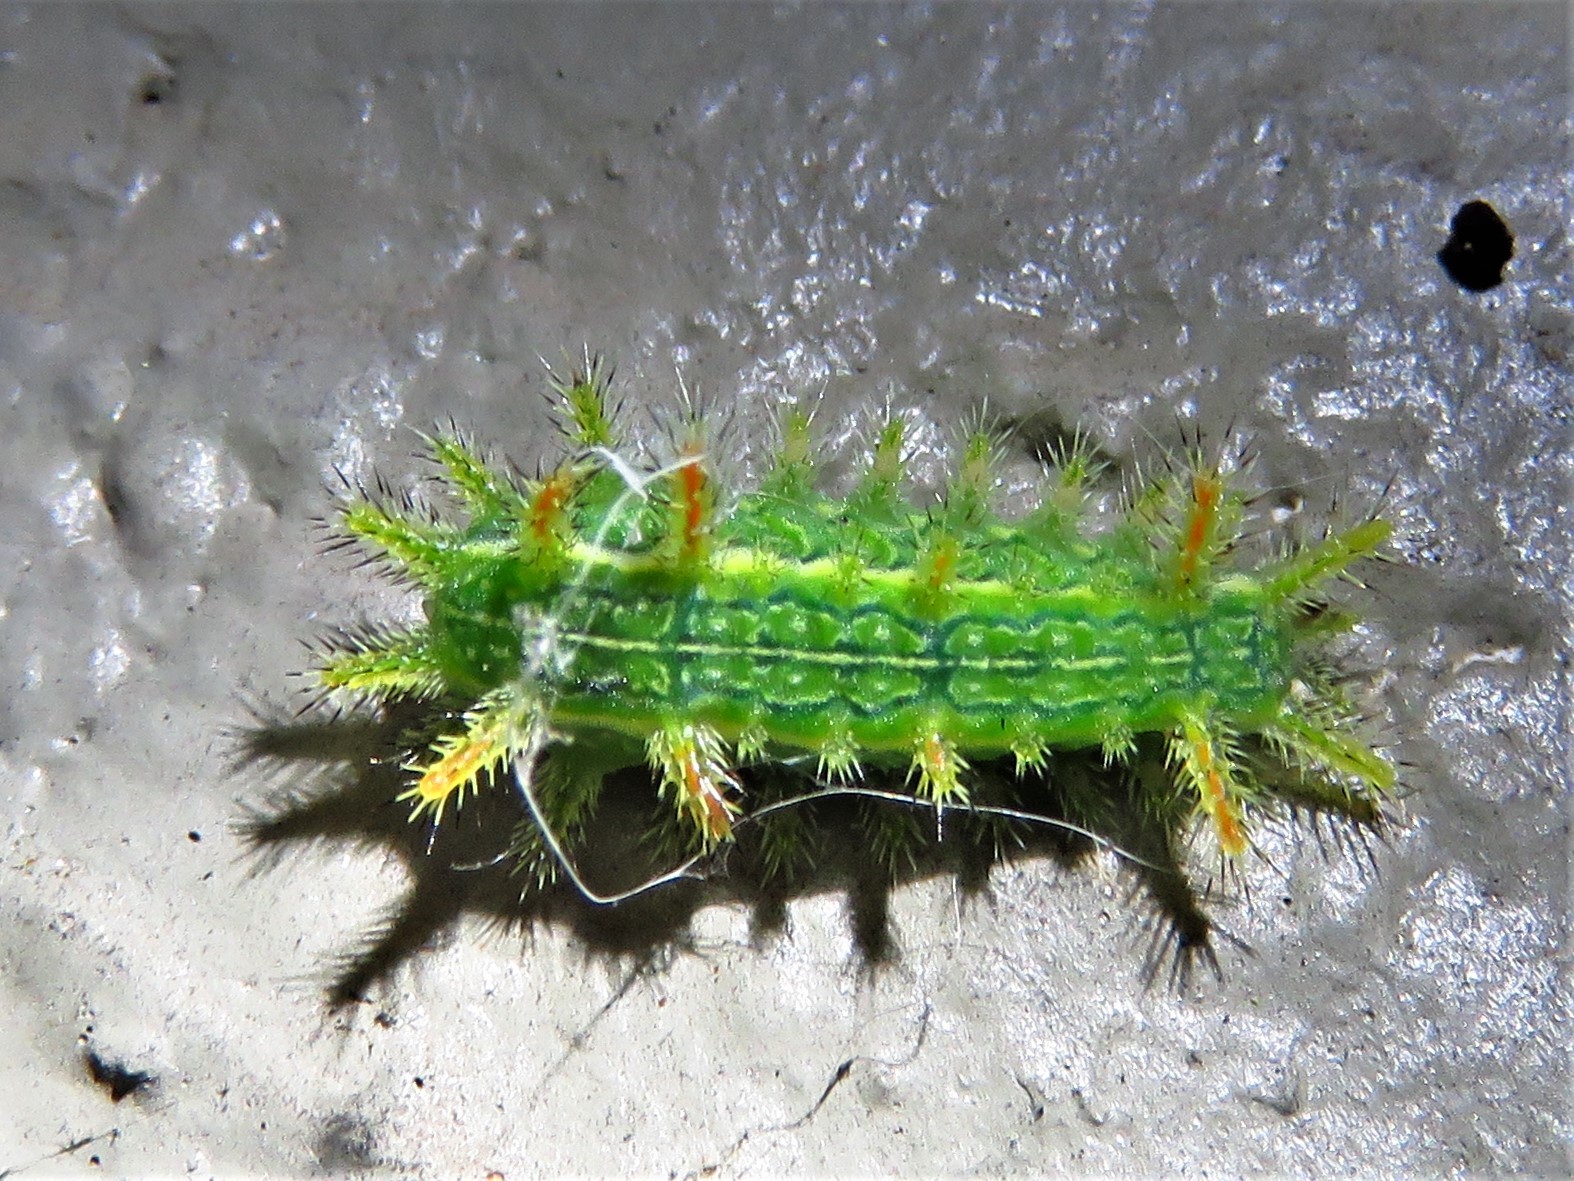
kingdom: Animalia
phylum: Arthropoda
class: Insecta
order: Lepidoptera
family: Limacodidae
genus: Euclea
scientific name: Euclea incisa
